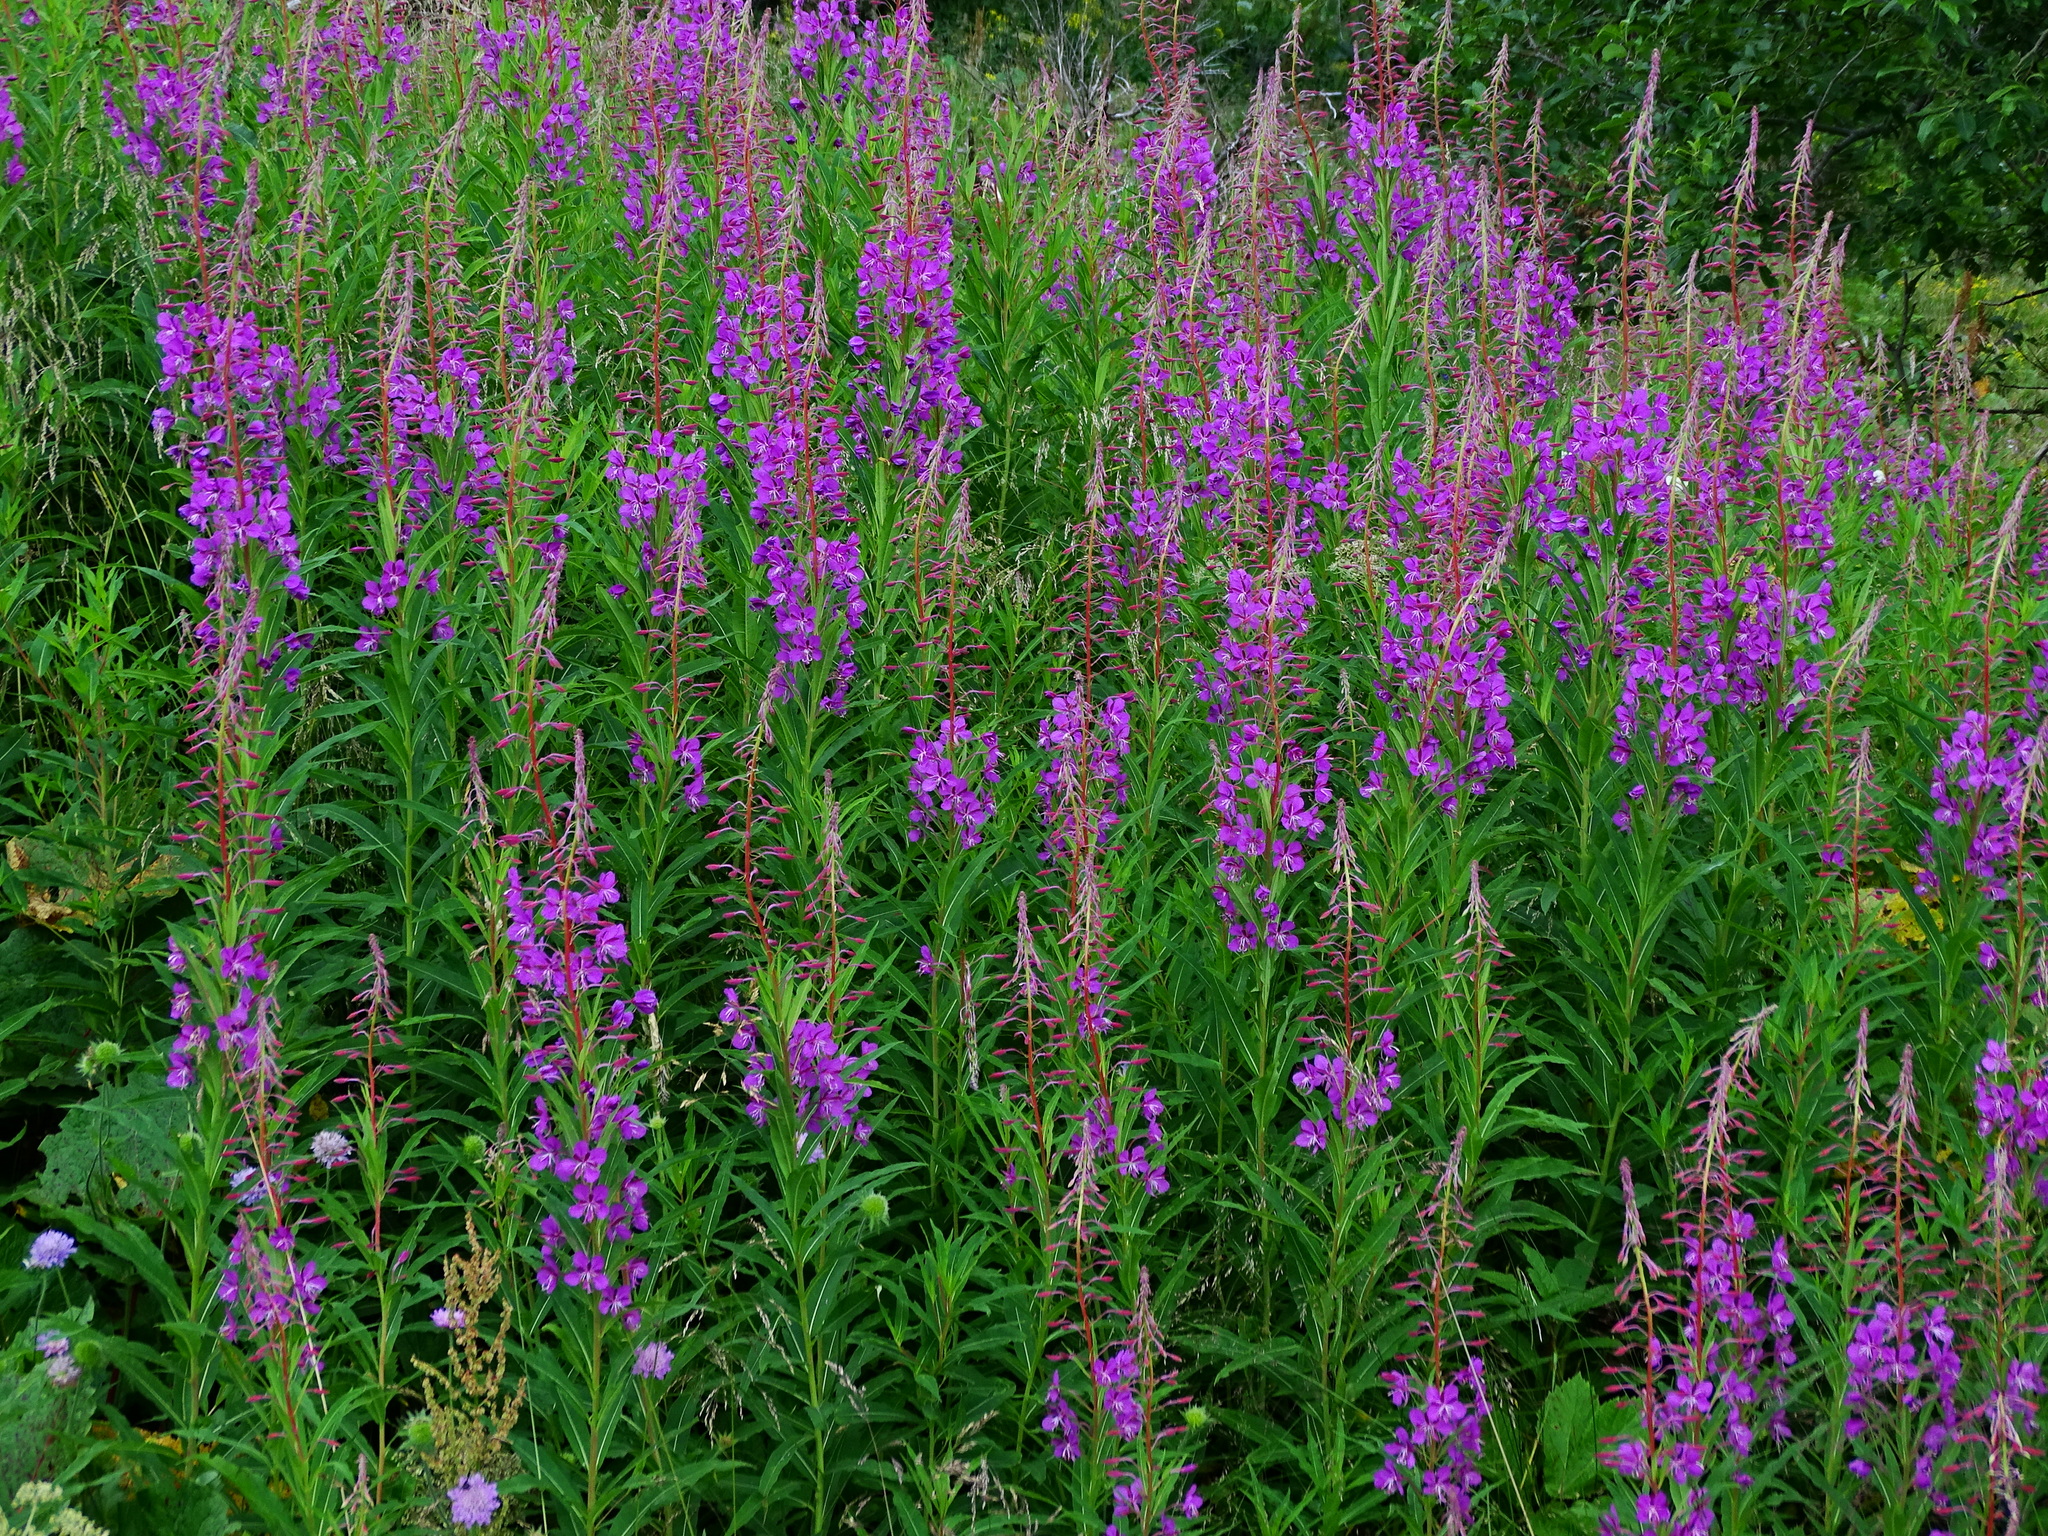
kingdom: Plantae
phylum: Tracheophyta
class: Magnoliopsida
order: Myrtales
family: Onagraceae
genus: Chamaenerion
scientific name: Chamaenerion angustifolium
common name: Fireweed
